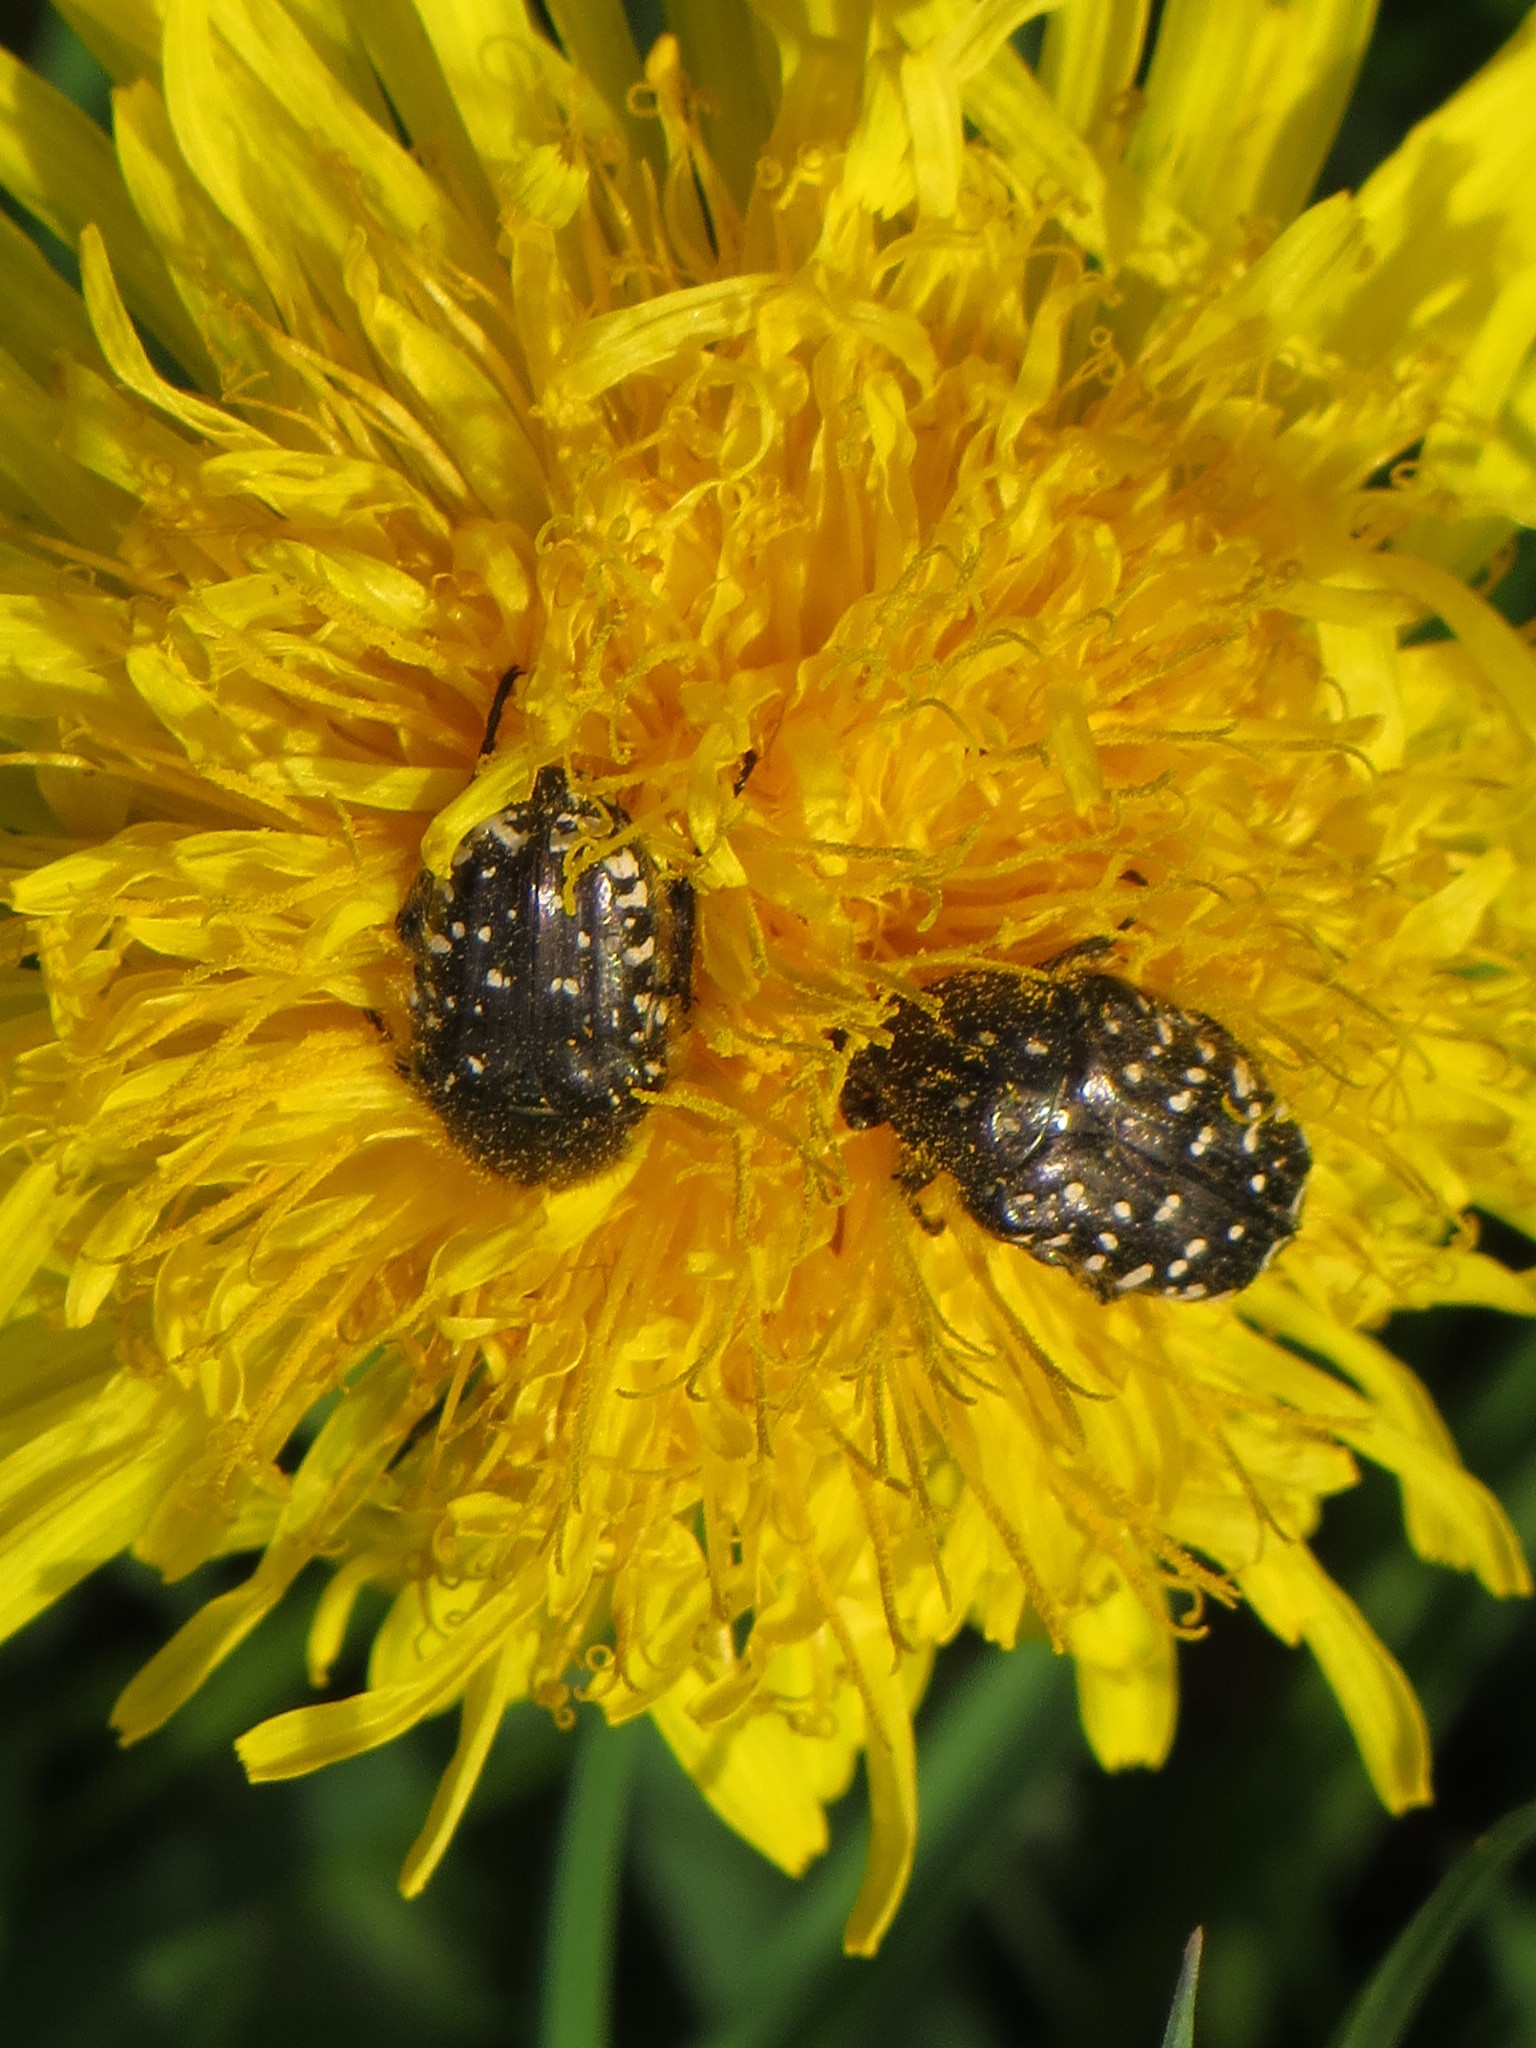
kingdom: Animalia
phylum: Arthropoda
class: Insecta
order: Coleoptera
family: Scarabaeidae
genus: Oxythyrea
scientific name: Oxythyrea funesta
